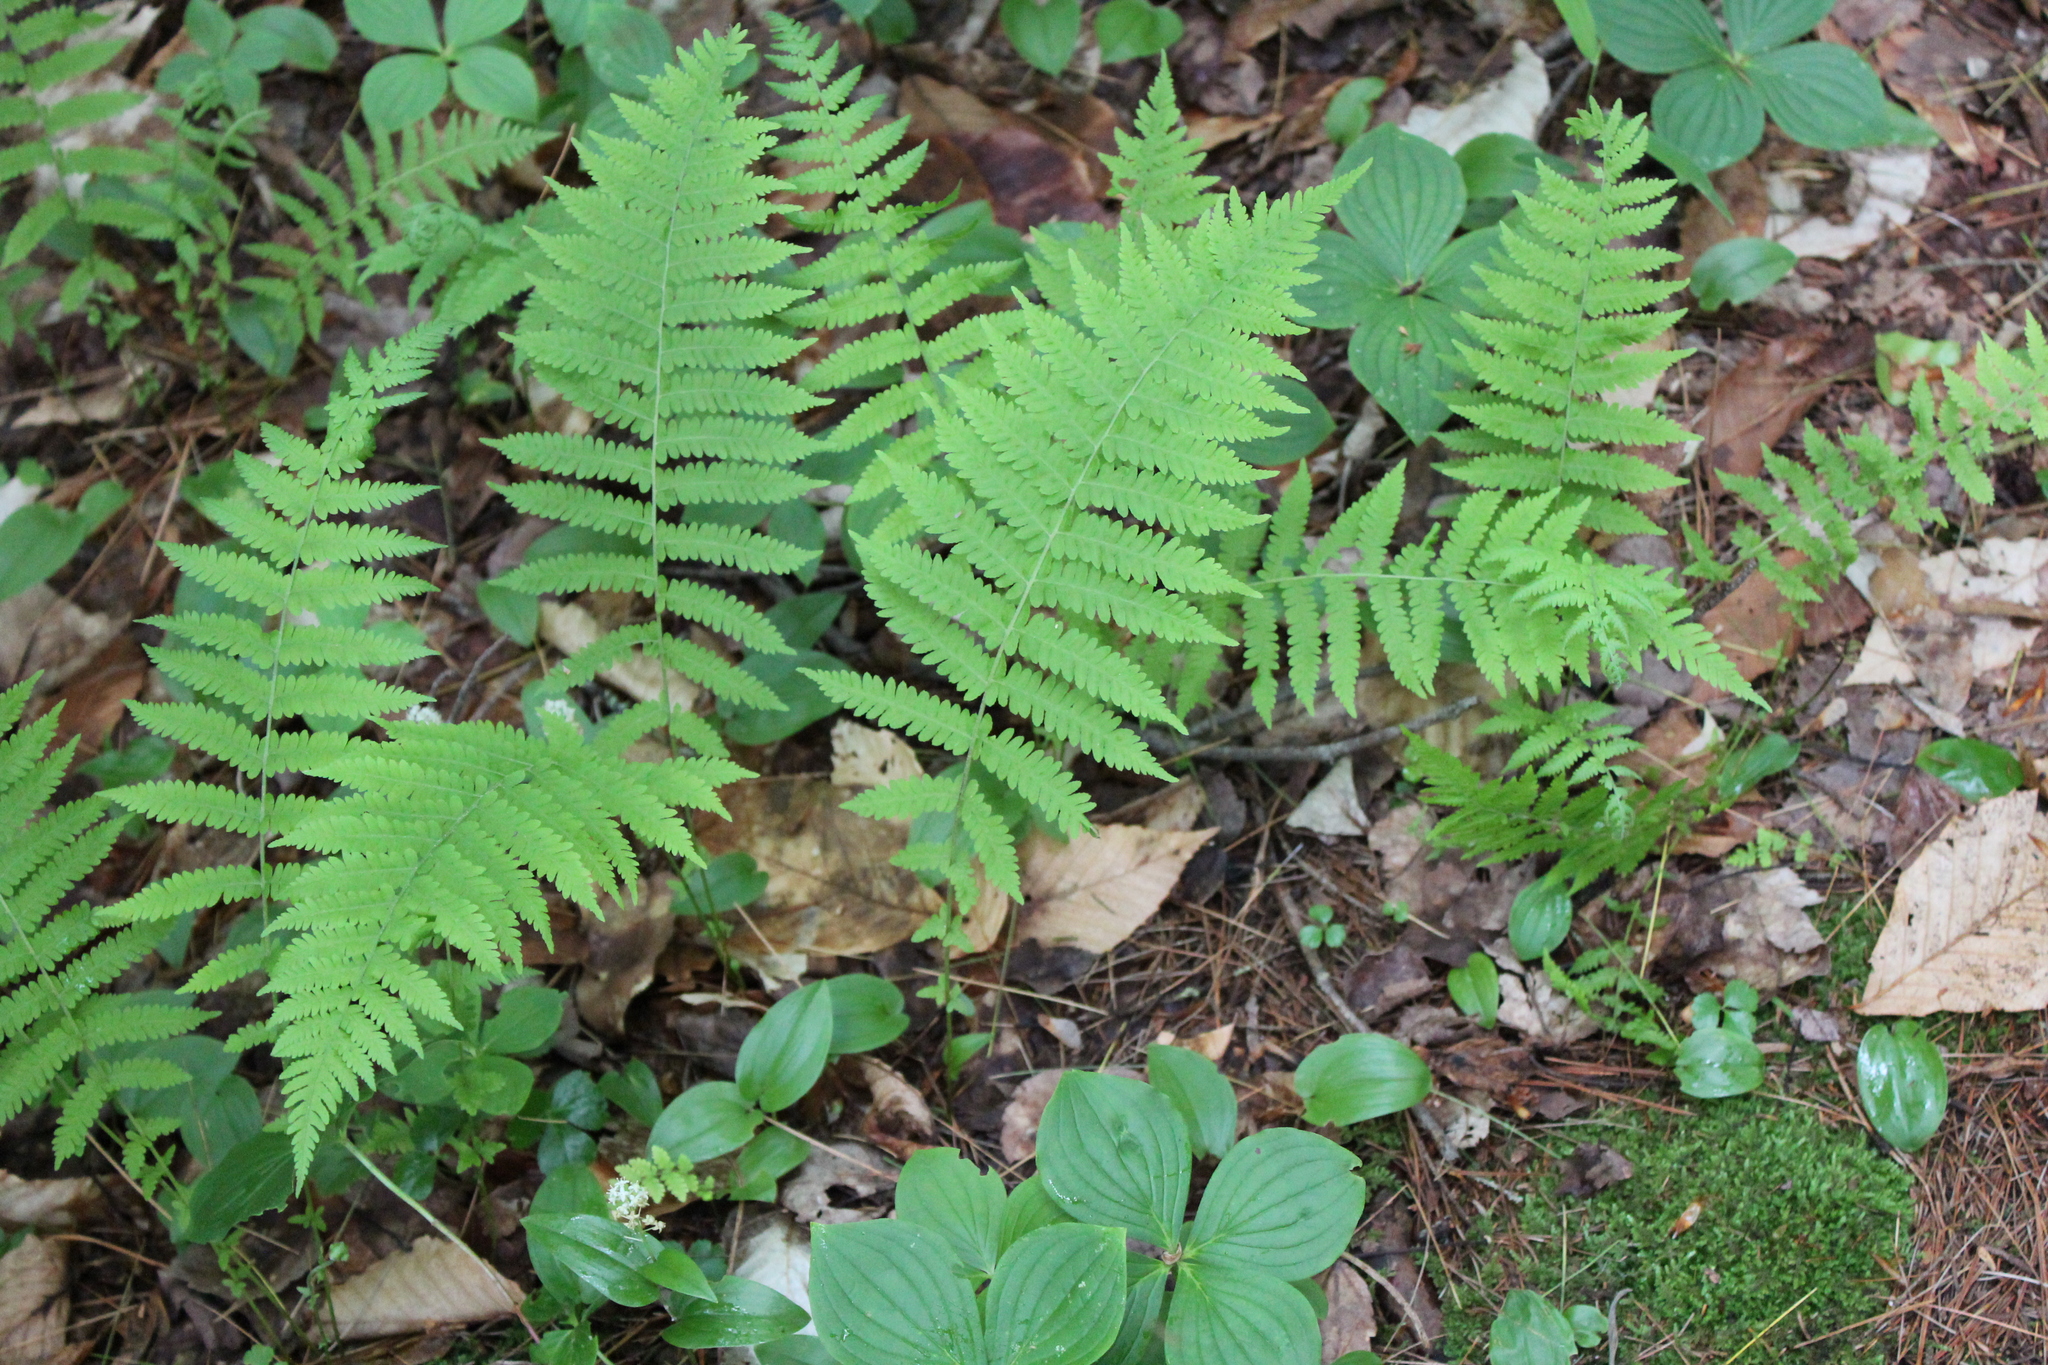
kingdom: Plantae
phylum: Tracheophyta
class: Polypodiopsida
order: Polypodiales
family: Thelypteridaceae
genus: Amauropelta
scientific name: Amauropelta noveboracensis
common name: New york fern
